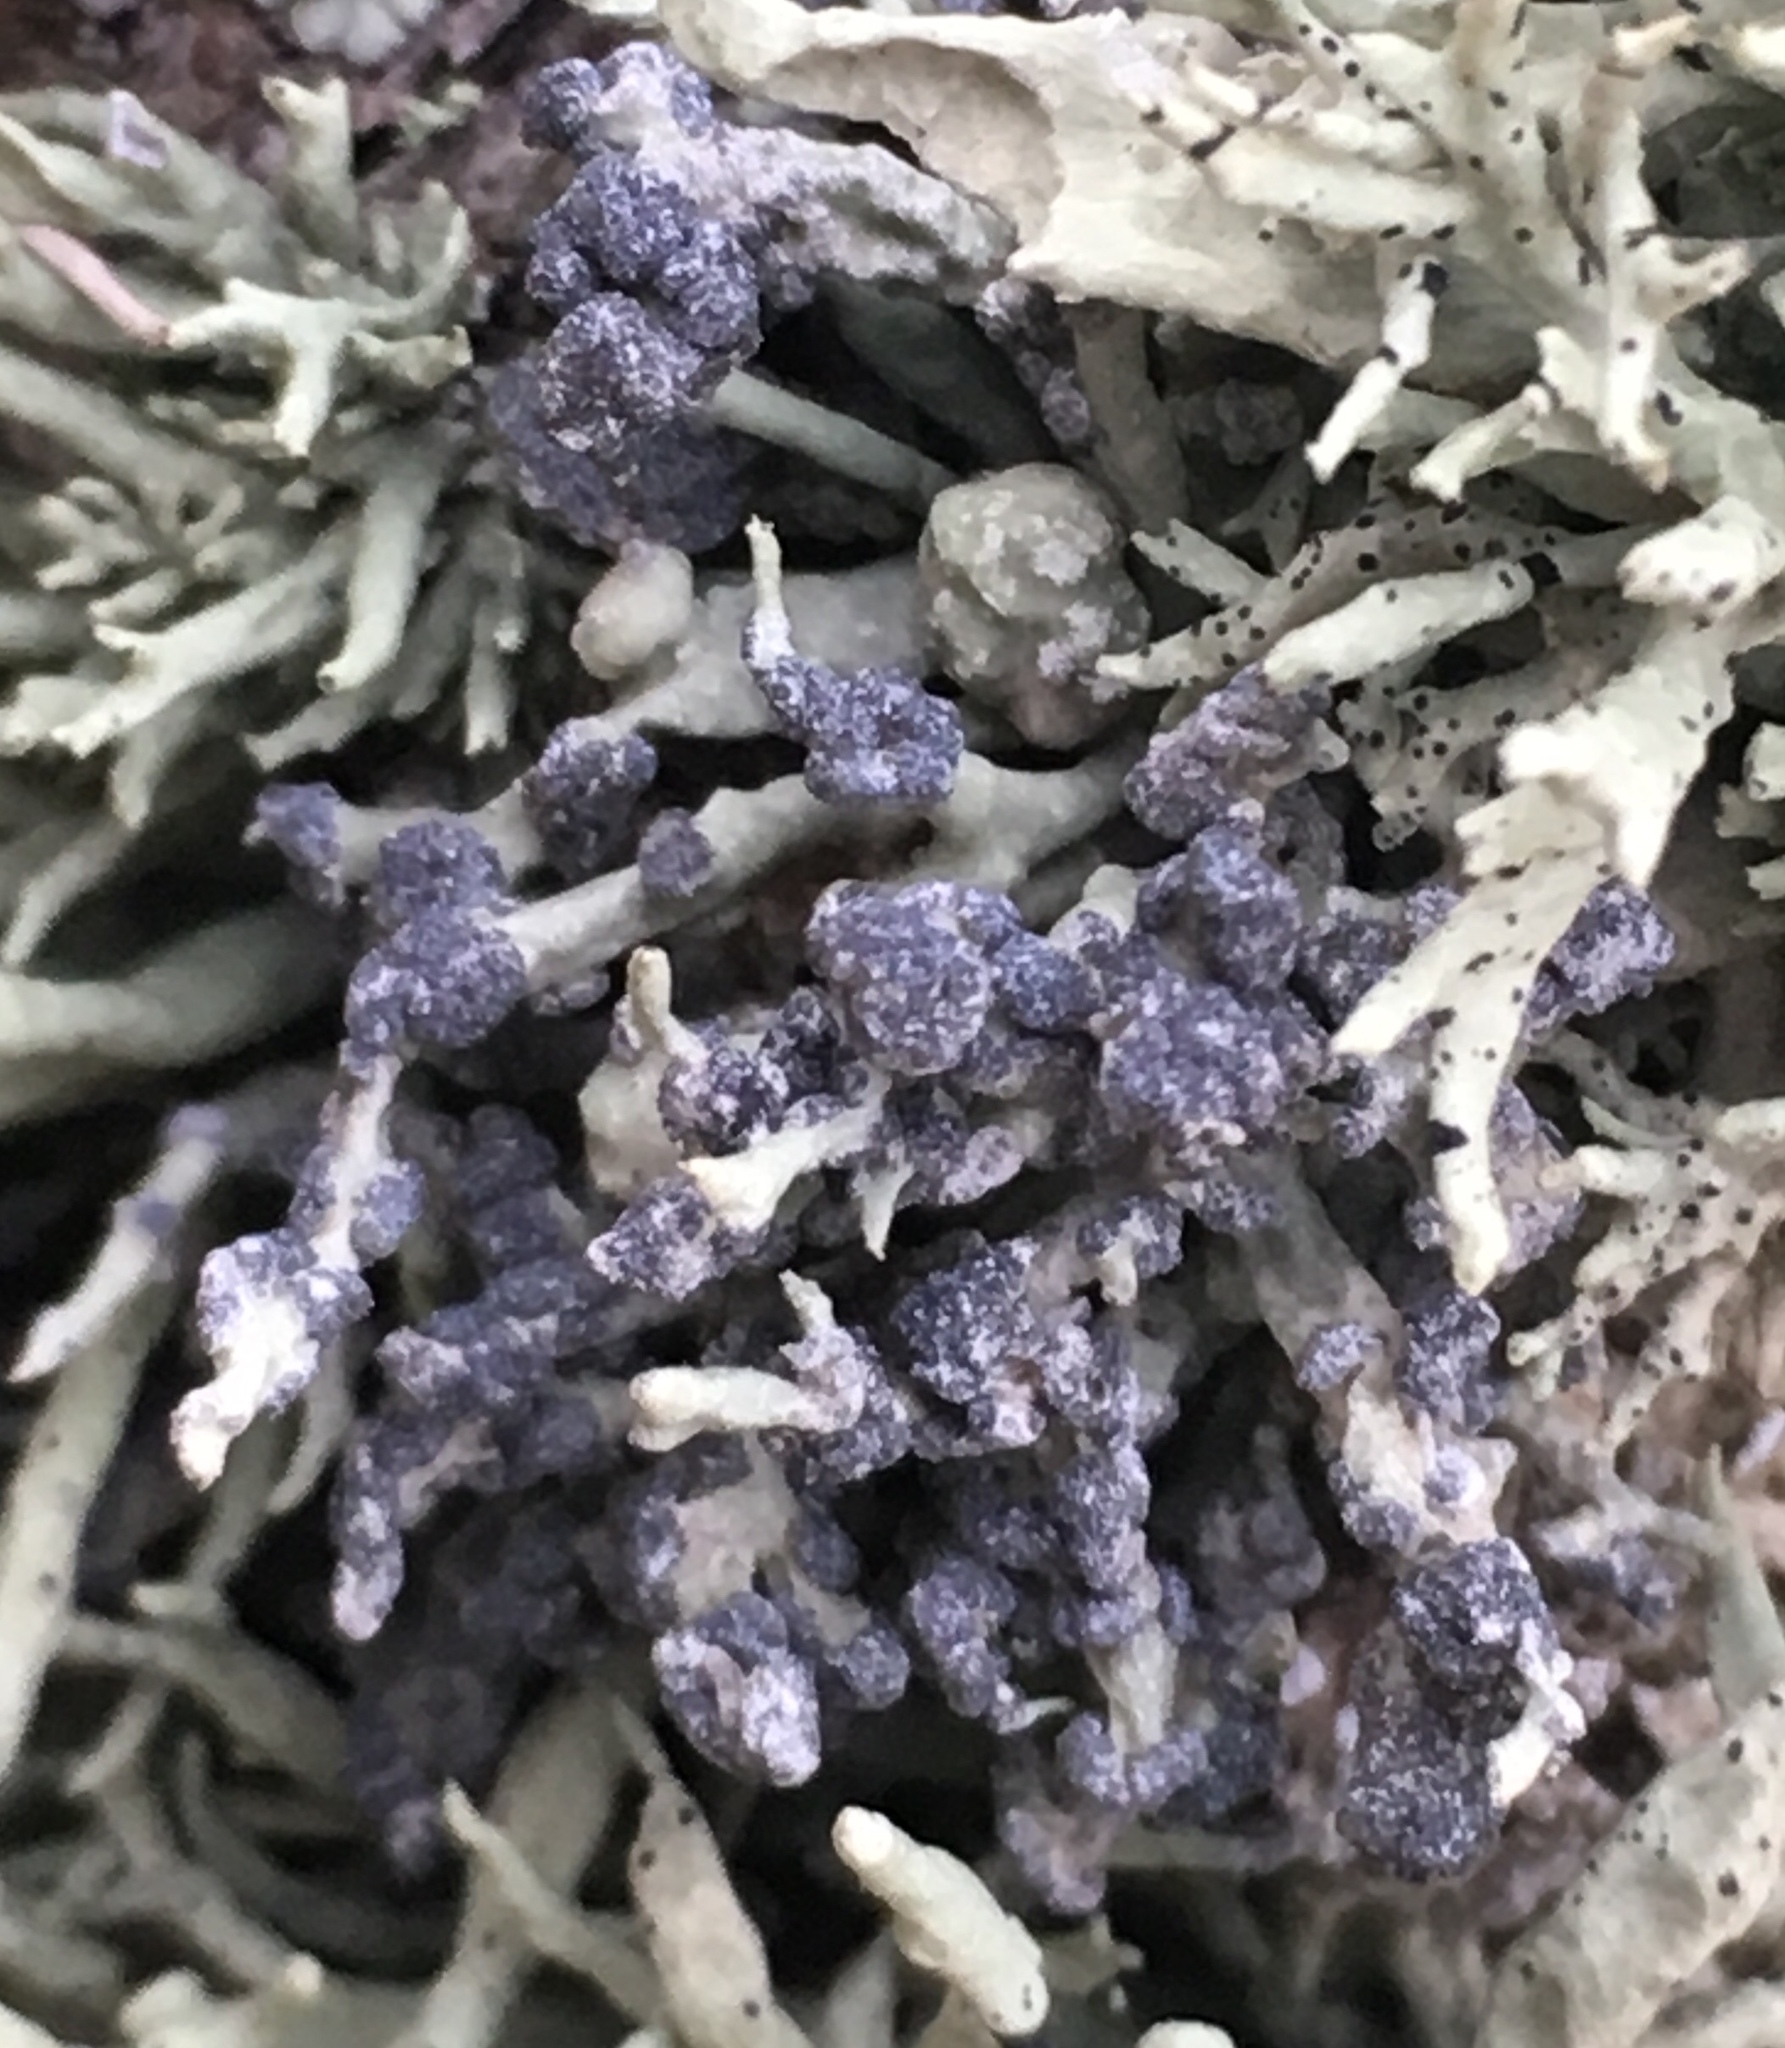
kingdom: Fungi
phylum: Ascomycota
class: Lecanoromycetes
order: Lecanorales
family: Ramalinaceae
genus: Niebla
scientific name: Niebla cephalota
